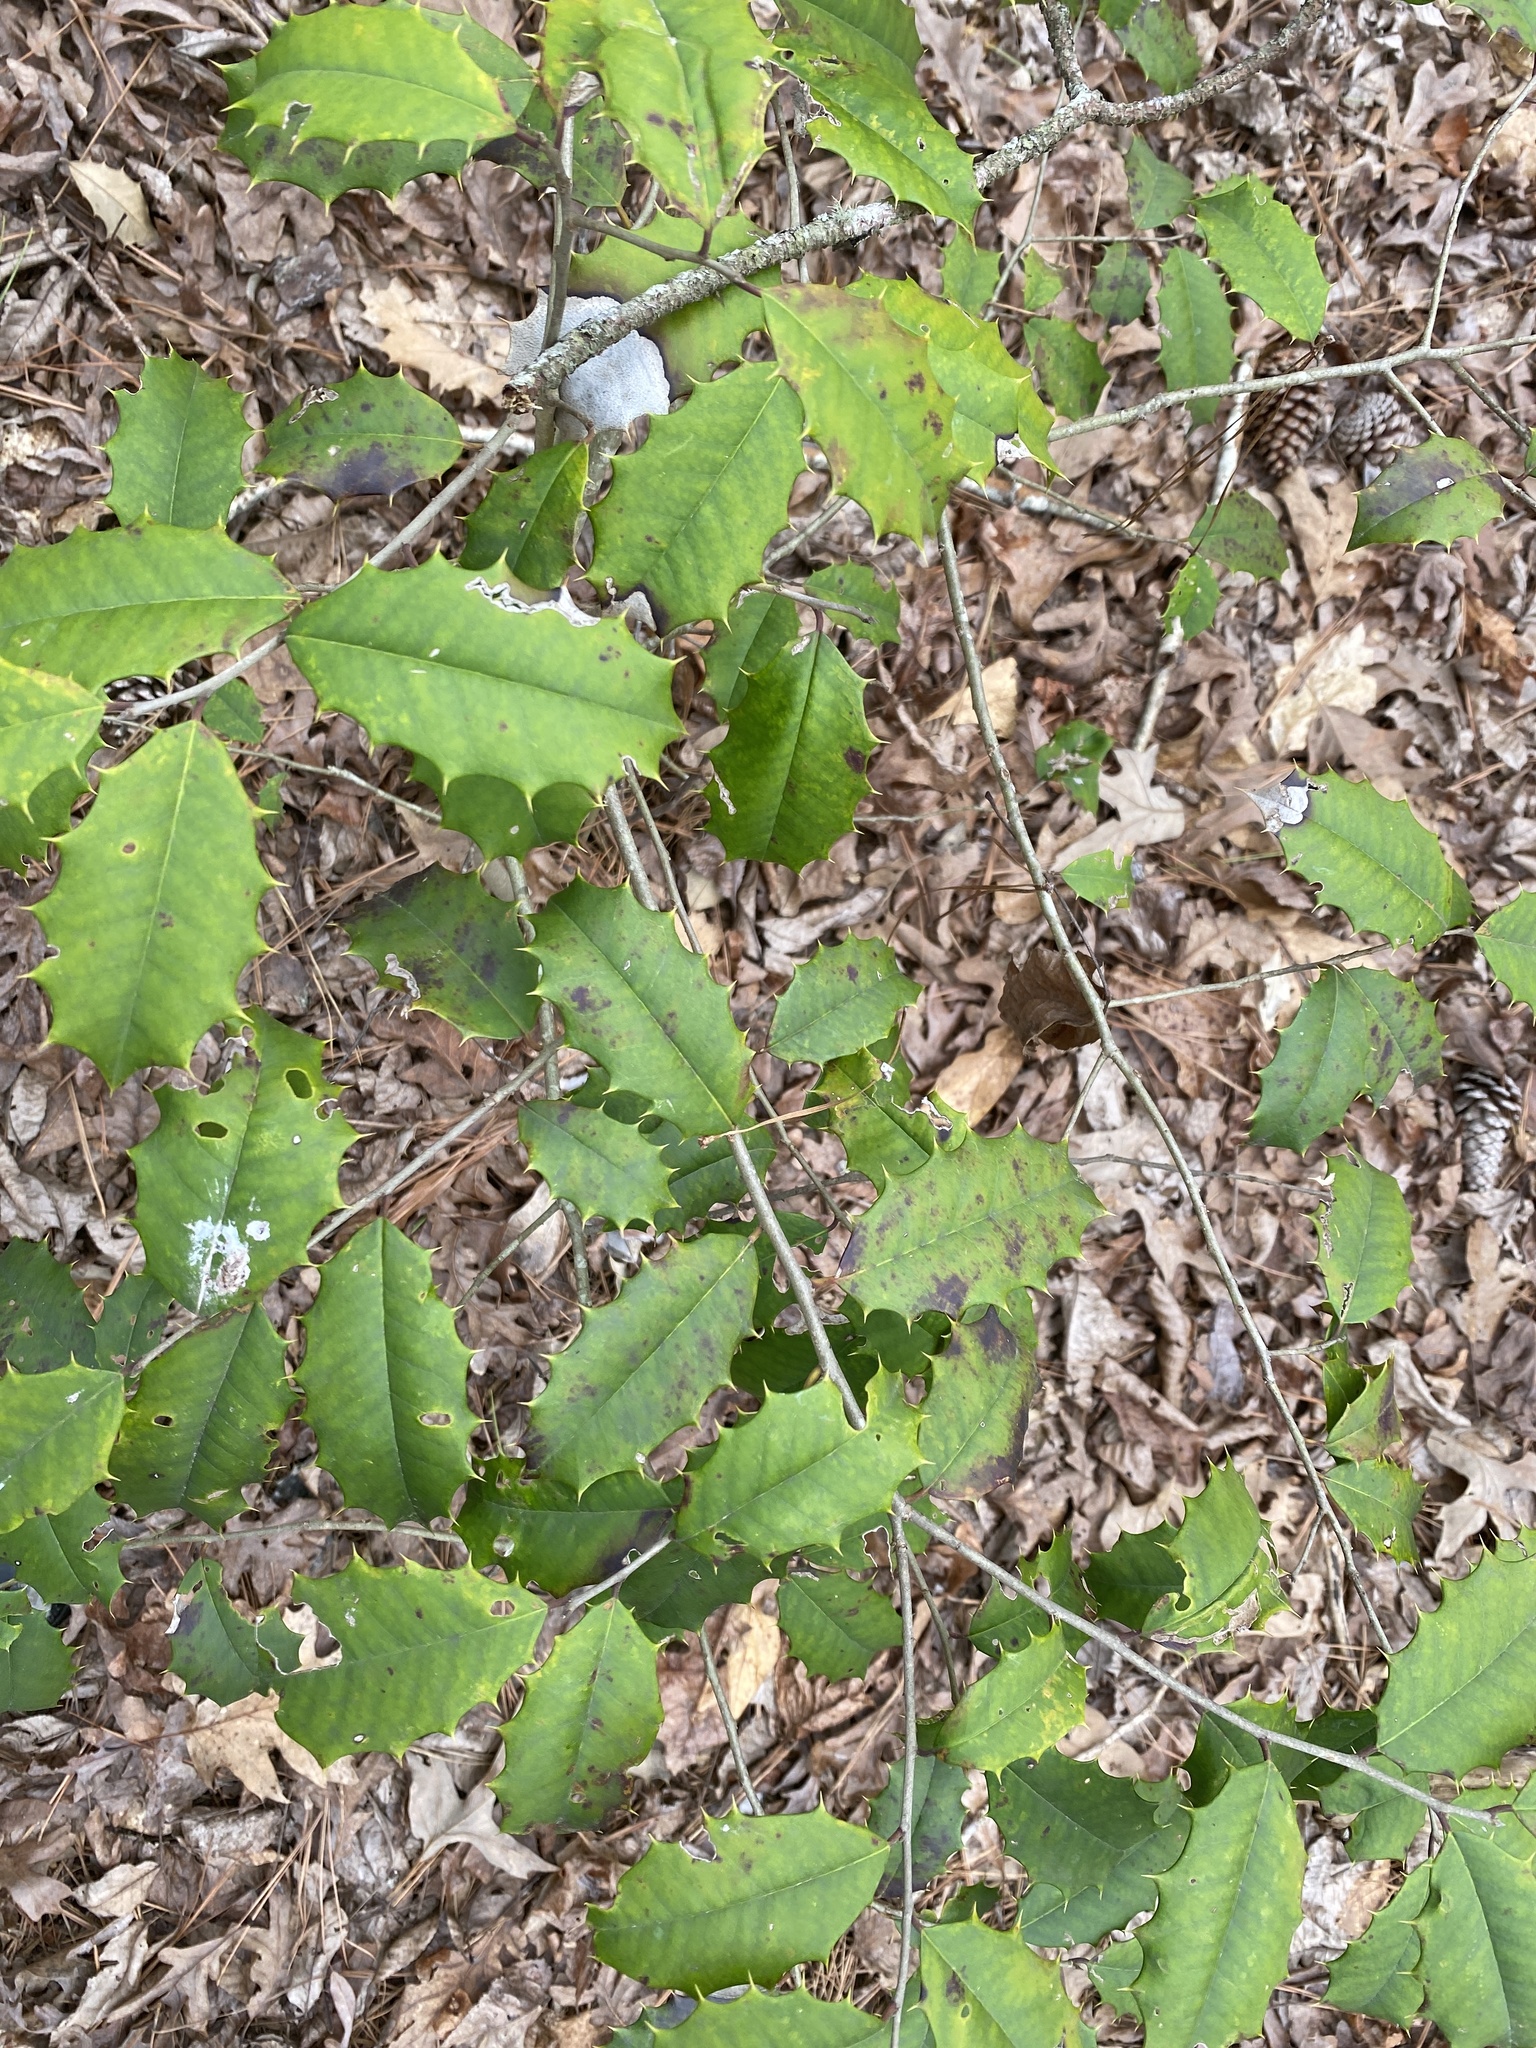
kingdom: Plantae
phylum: Tracheophyta
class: Magnoliopsida
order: Aquifoliales
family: Aquifoliaceae
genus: Ilex
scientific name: Ilex opaca
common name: American holly
